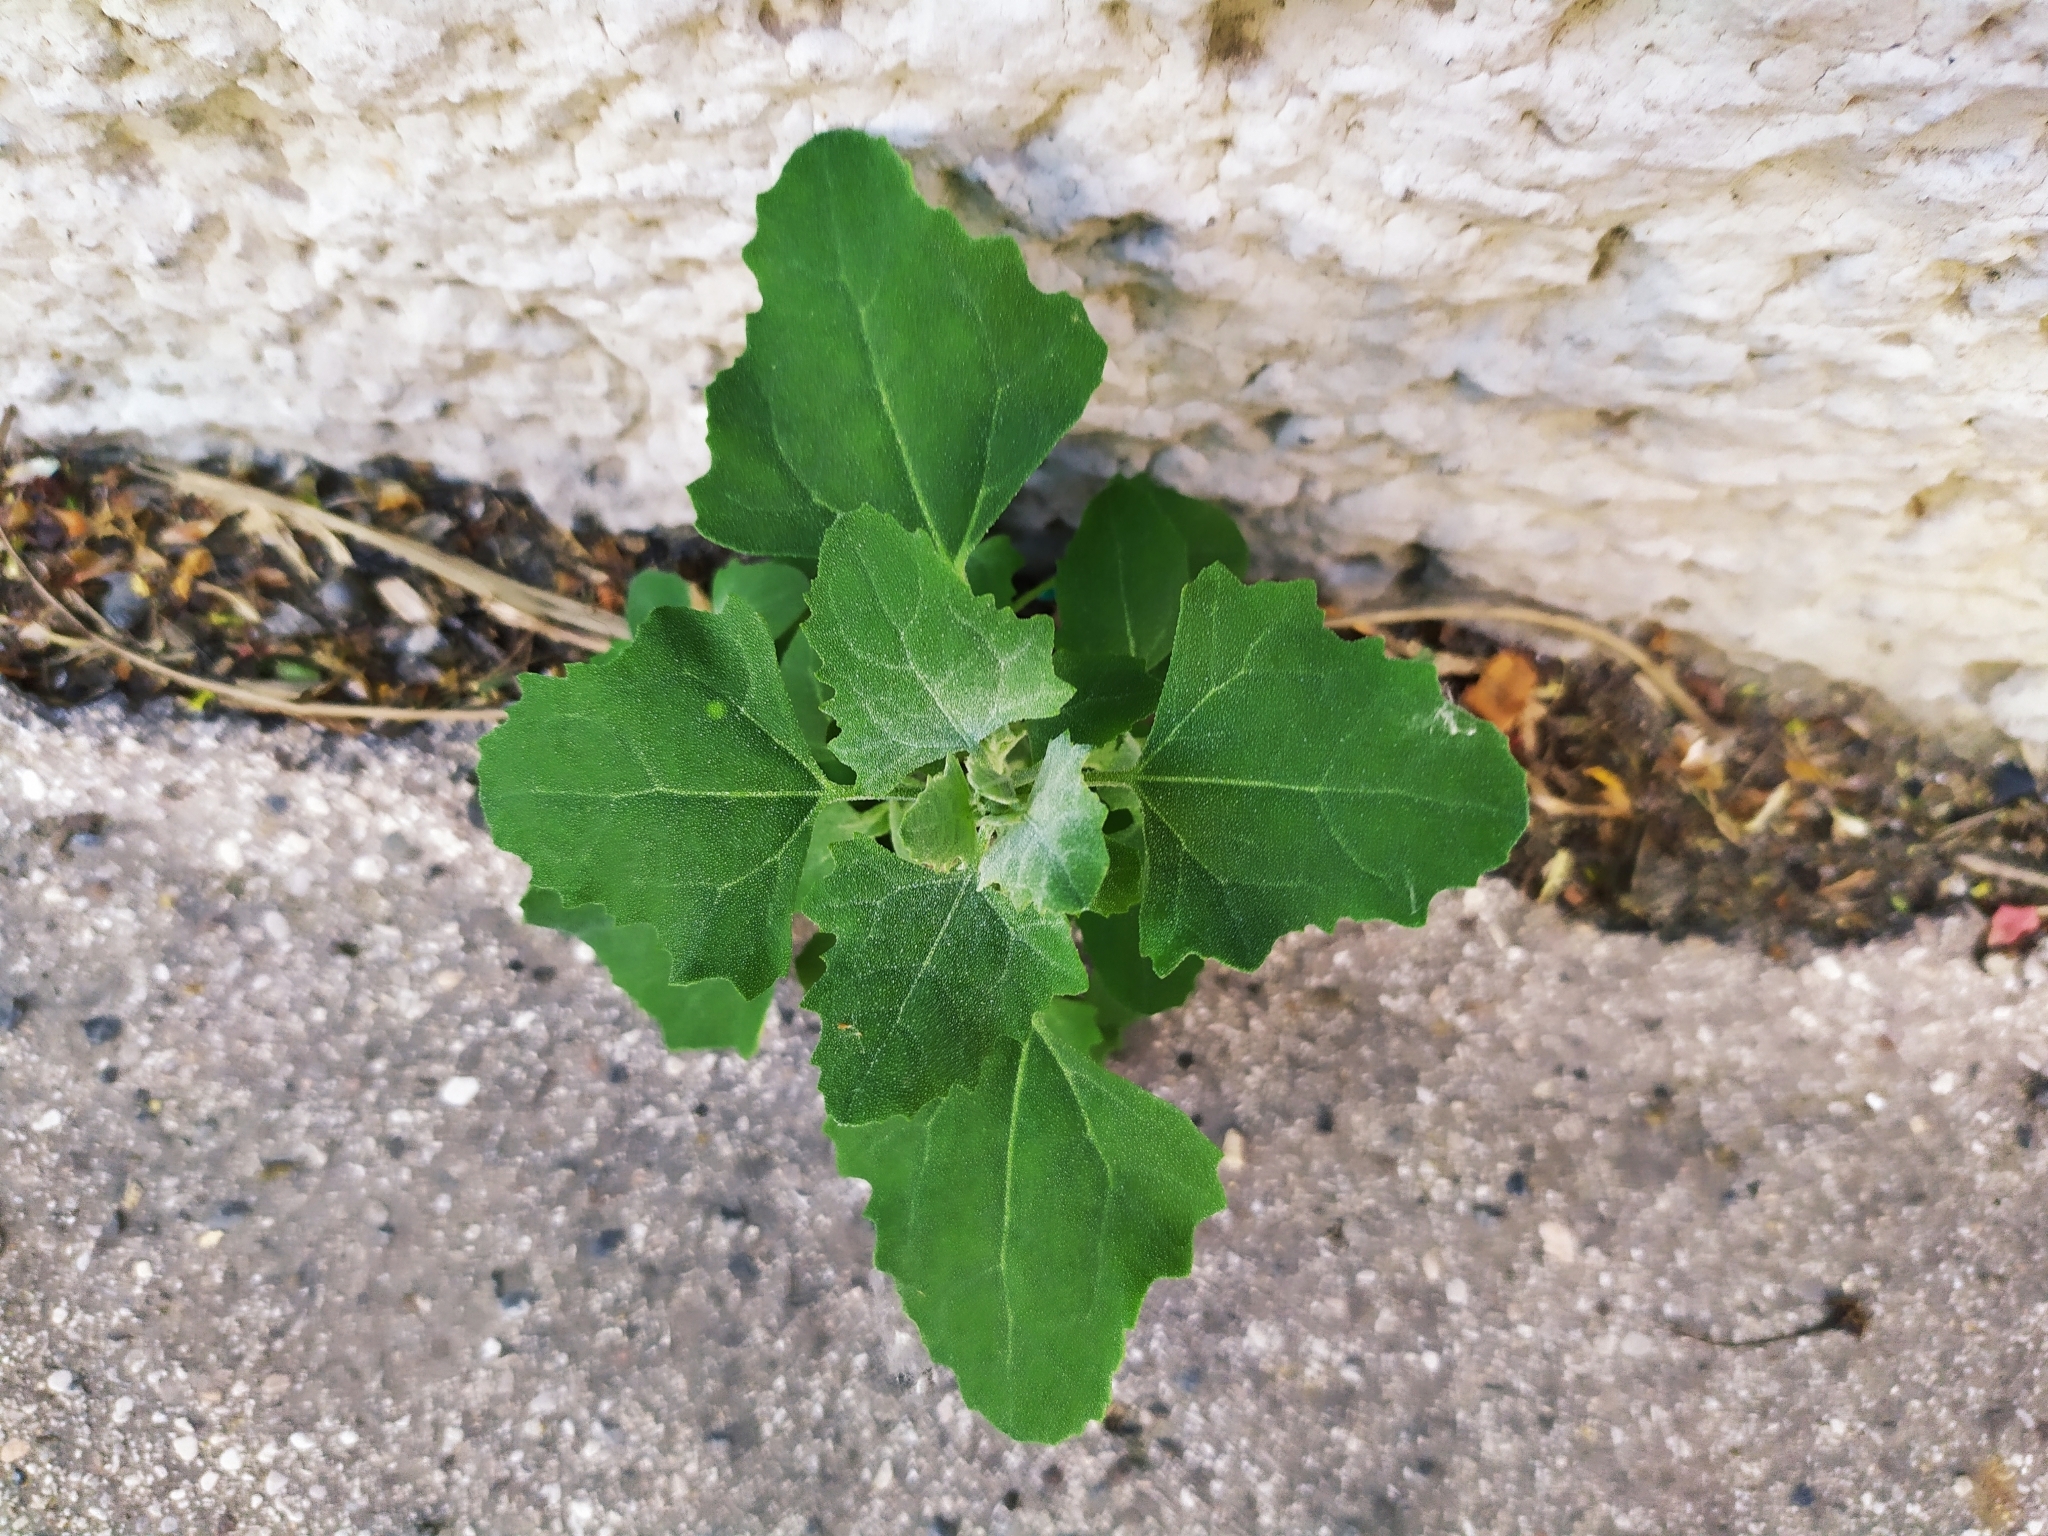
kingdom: Plantae
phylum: Tracheophyta
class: Magnoliopsida
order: Caryophyllales
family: Amaranthaceae
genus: Chenopodium
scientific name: Chenopodium album
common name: Fat-hen
